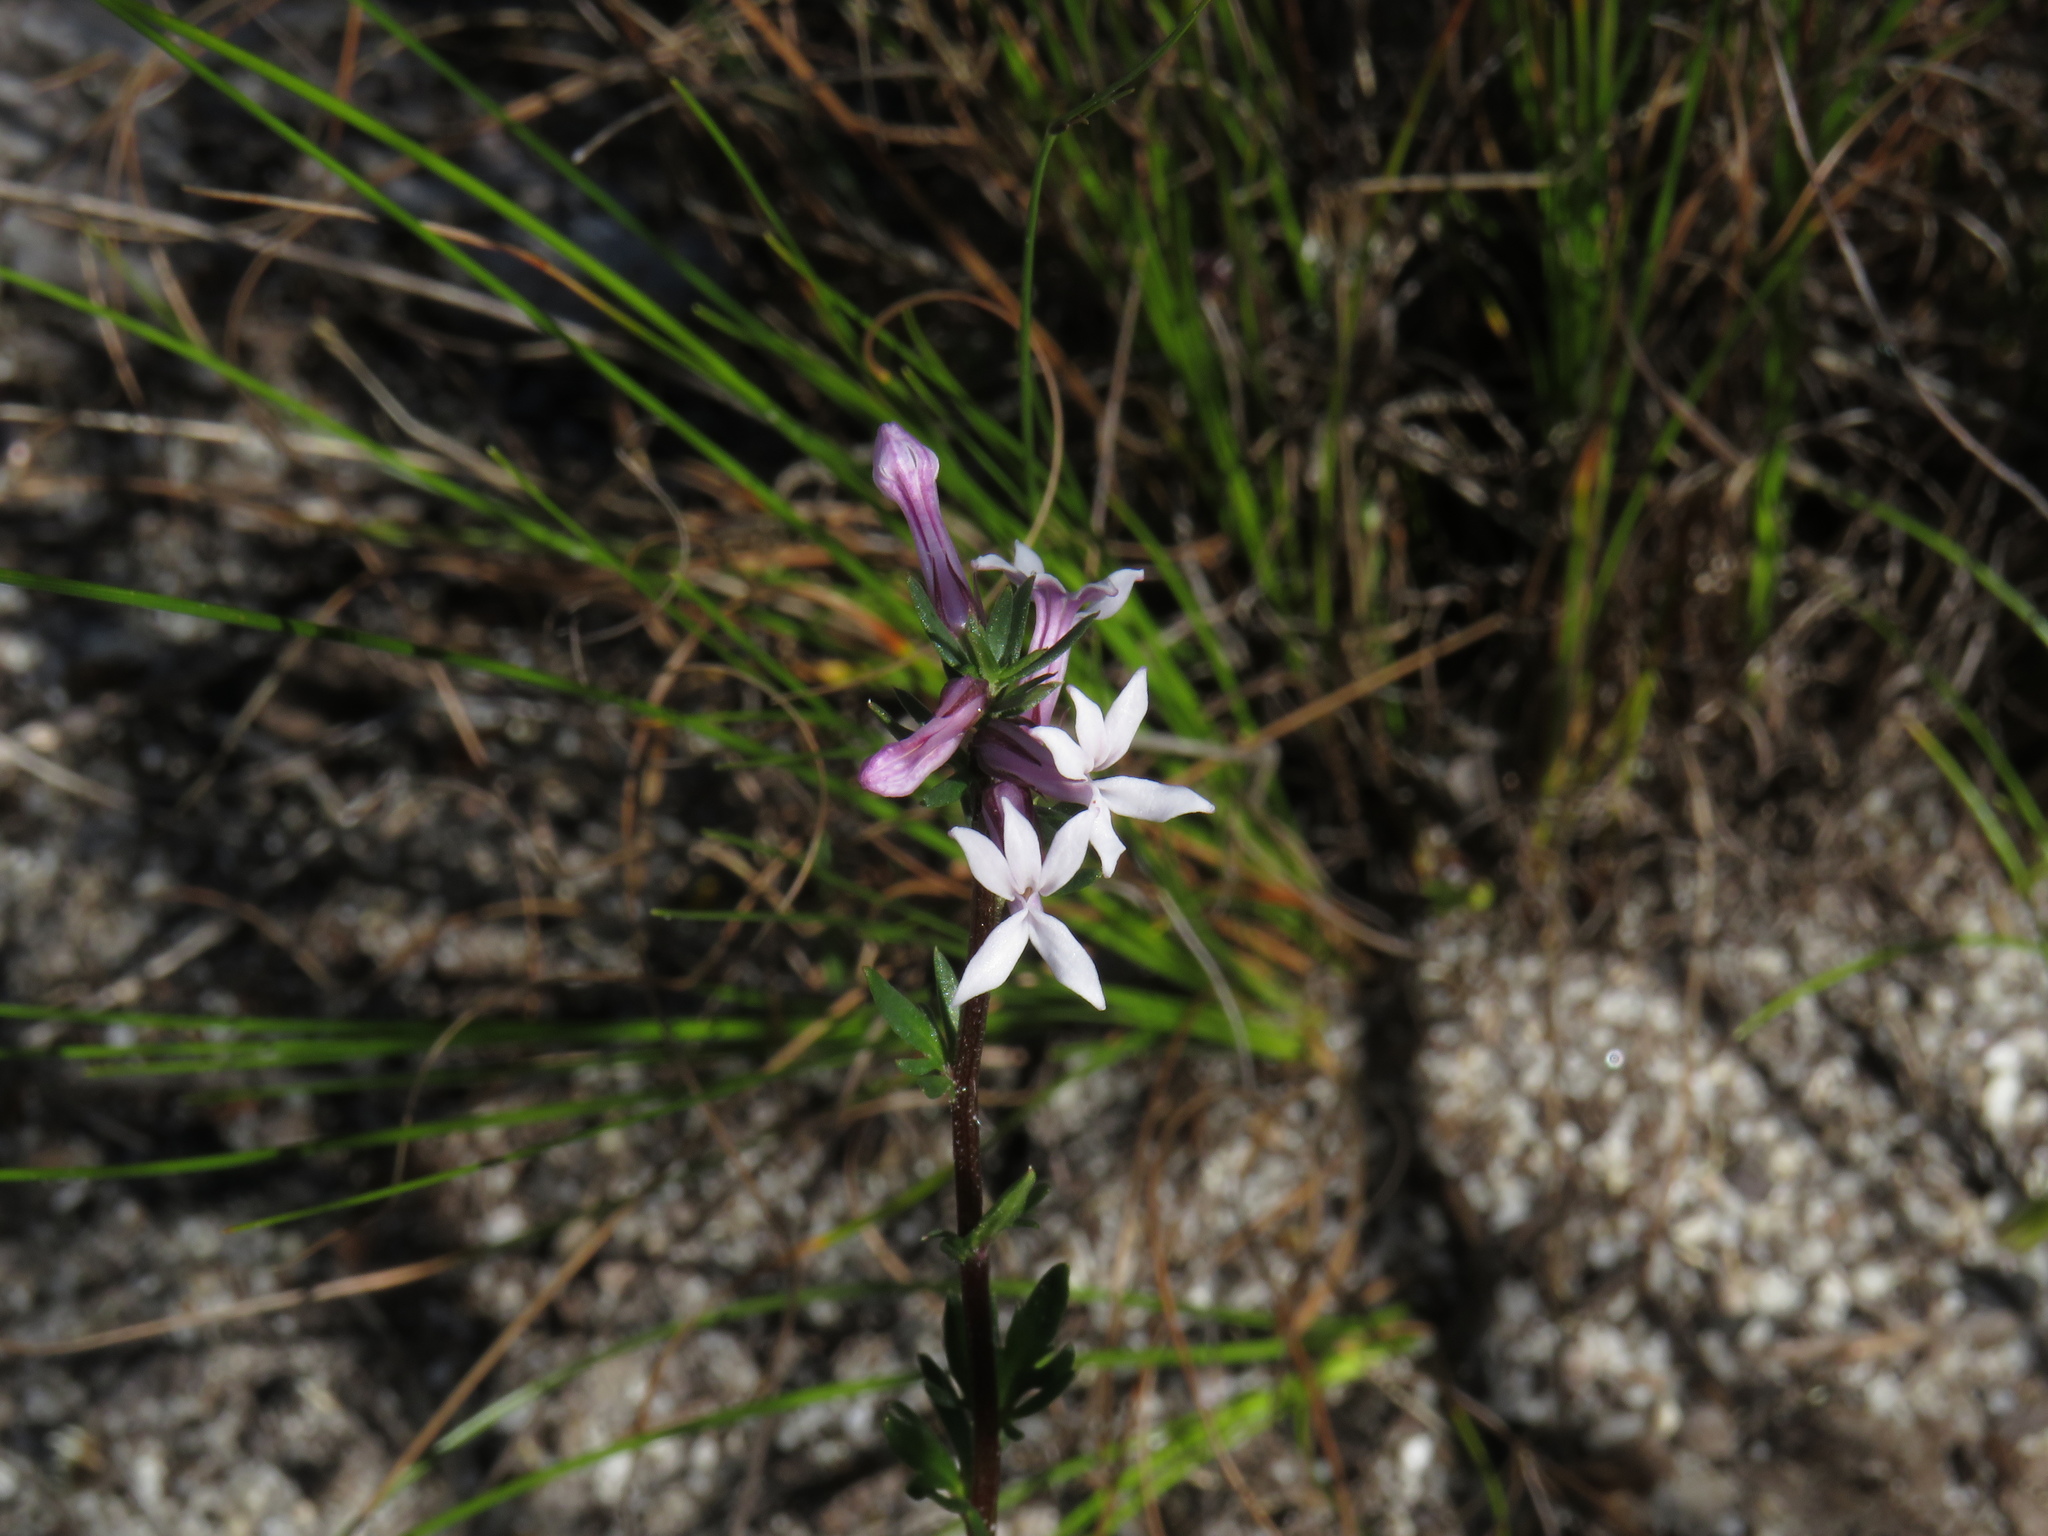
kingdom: Plantae
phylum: Tracheophyta
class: Magnoliopsida
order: Asterales
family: Campanulaceae
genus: Cyphia
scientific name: Cyphia bulbosa
